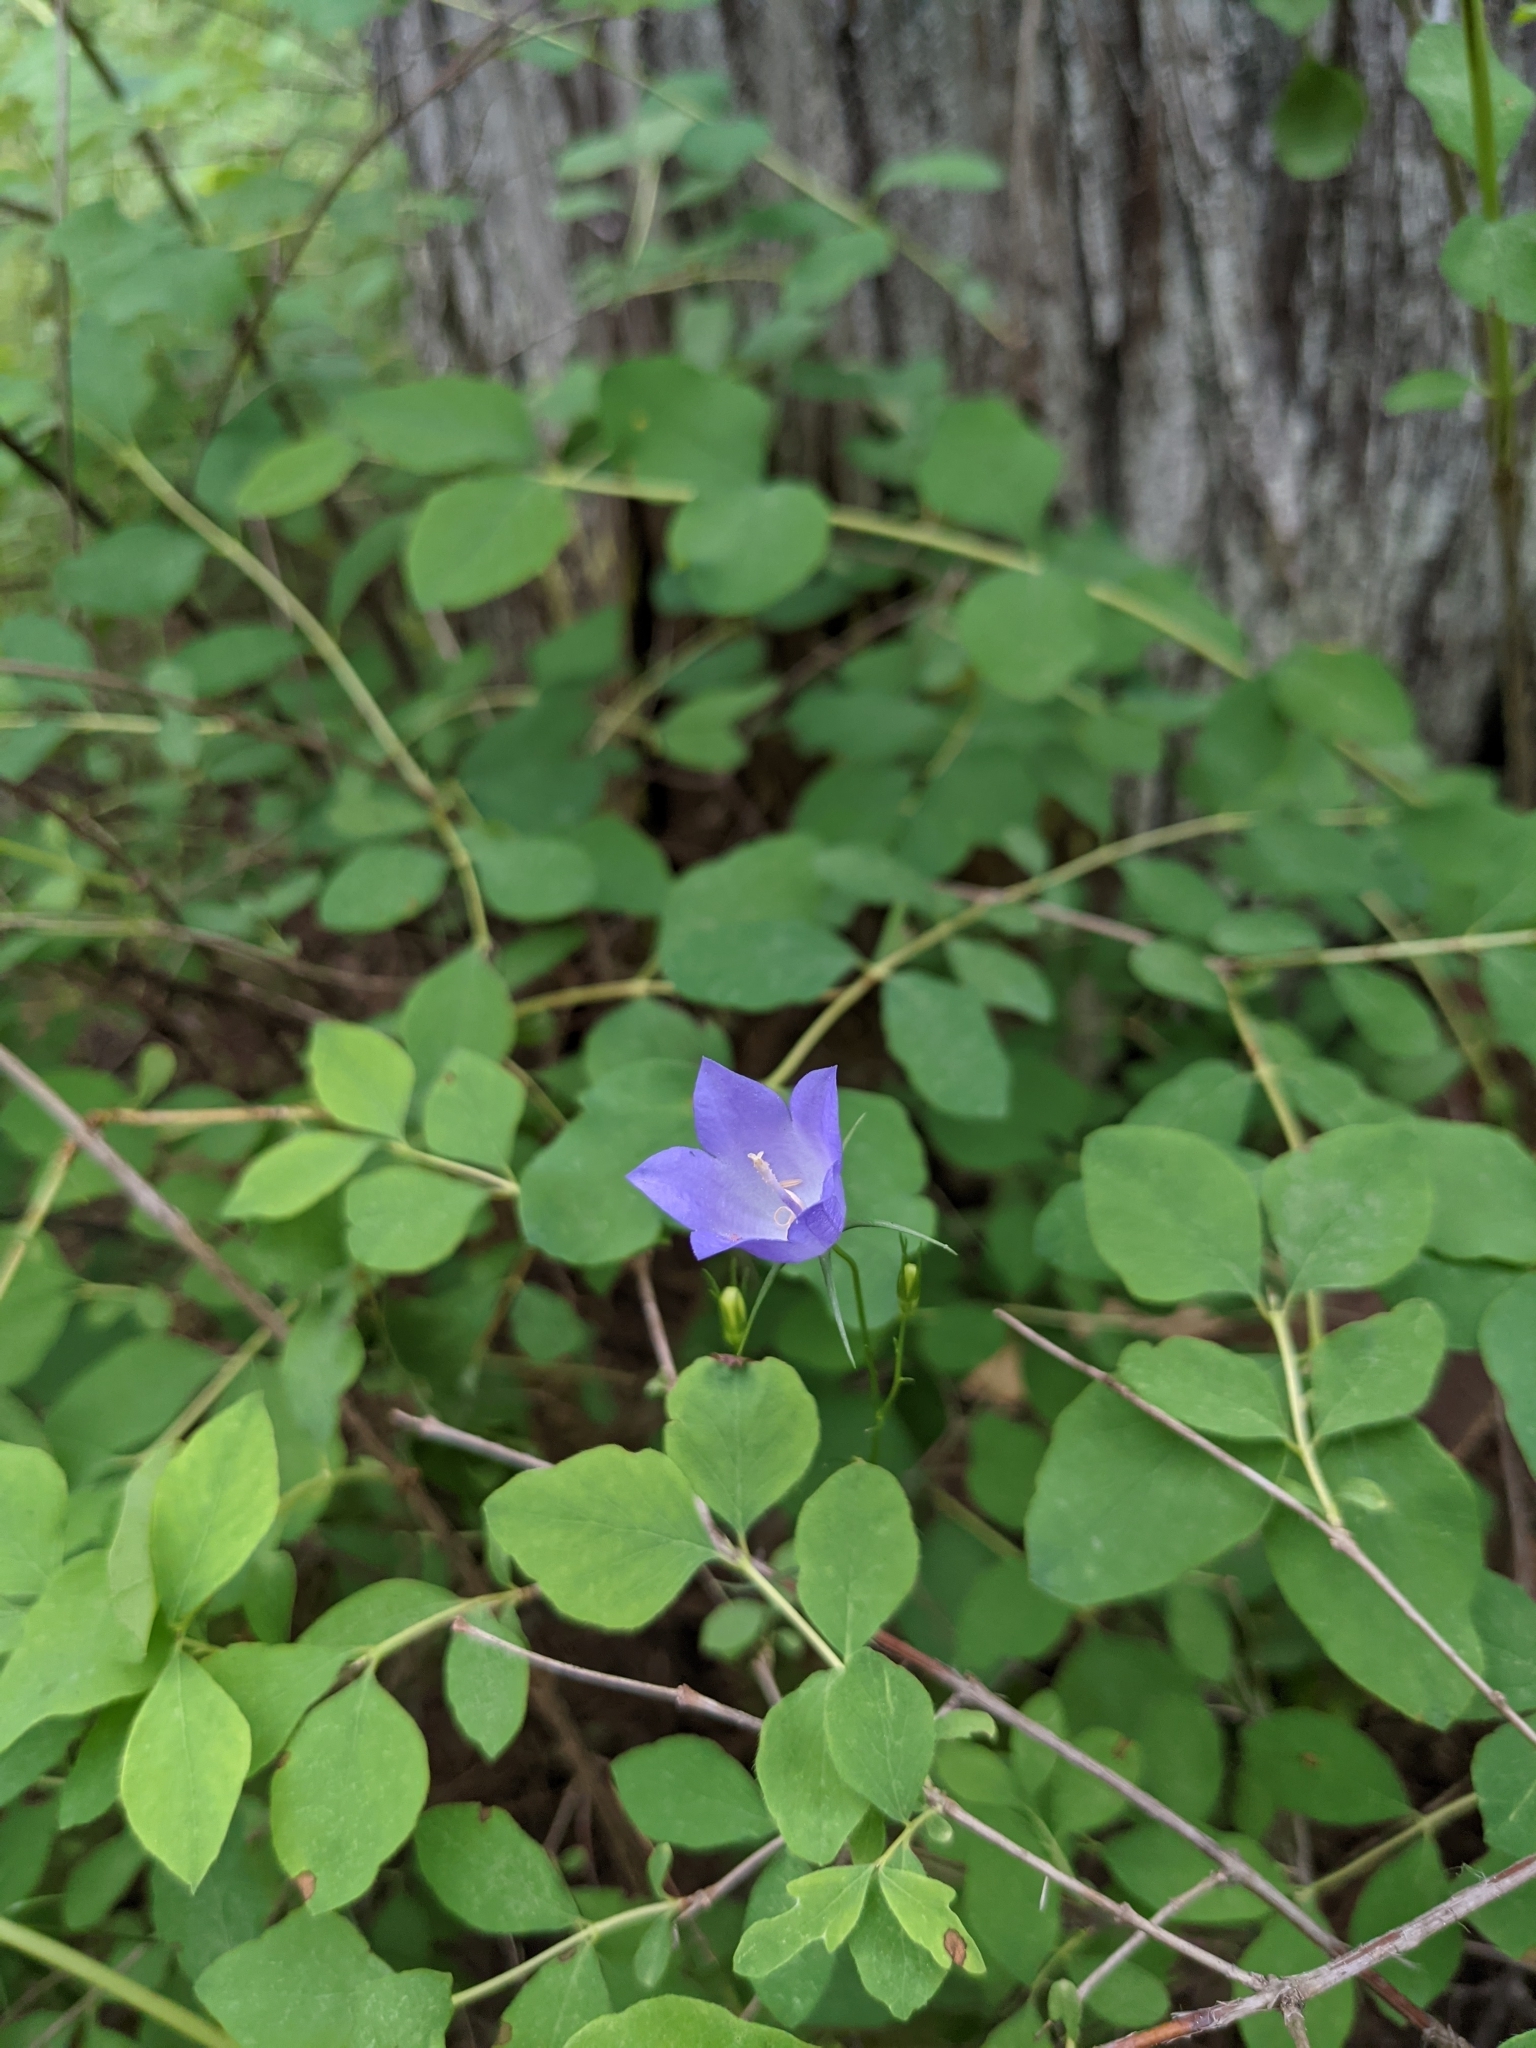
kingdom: Plantae
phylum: Tracheophyta
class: Magnoliopsida
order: Asterales
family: Campanulaceae
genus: Campanula
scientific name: Campanula petiolata
